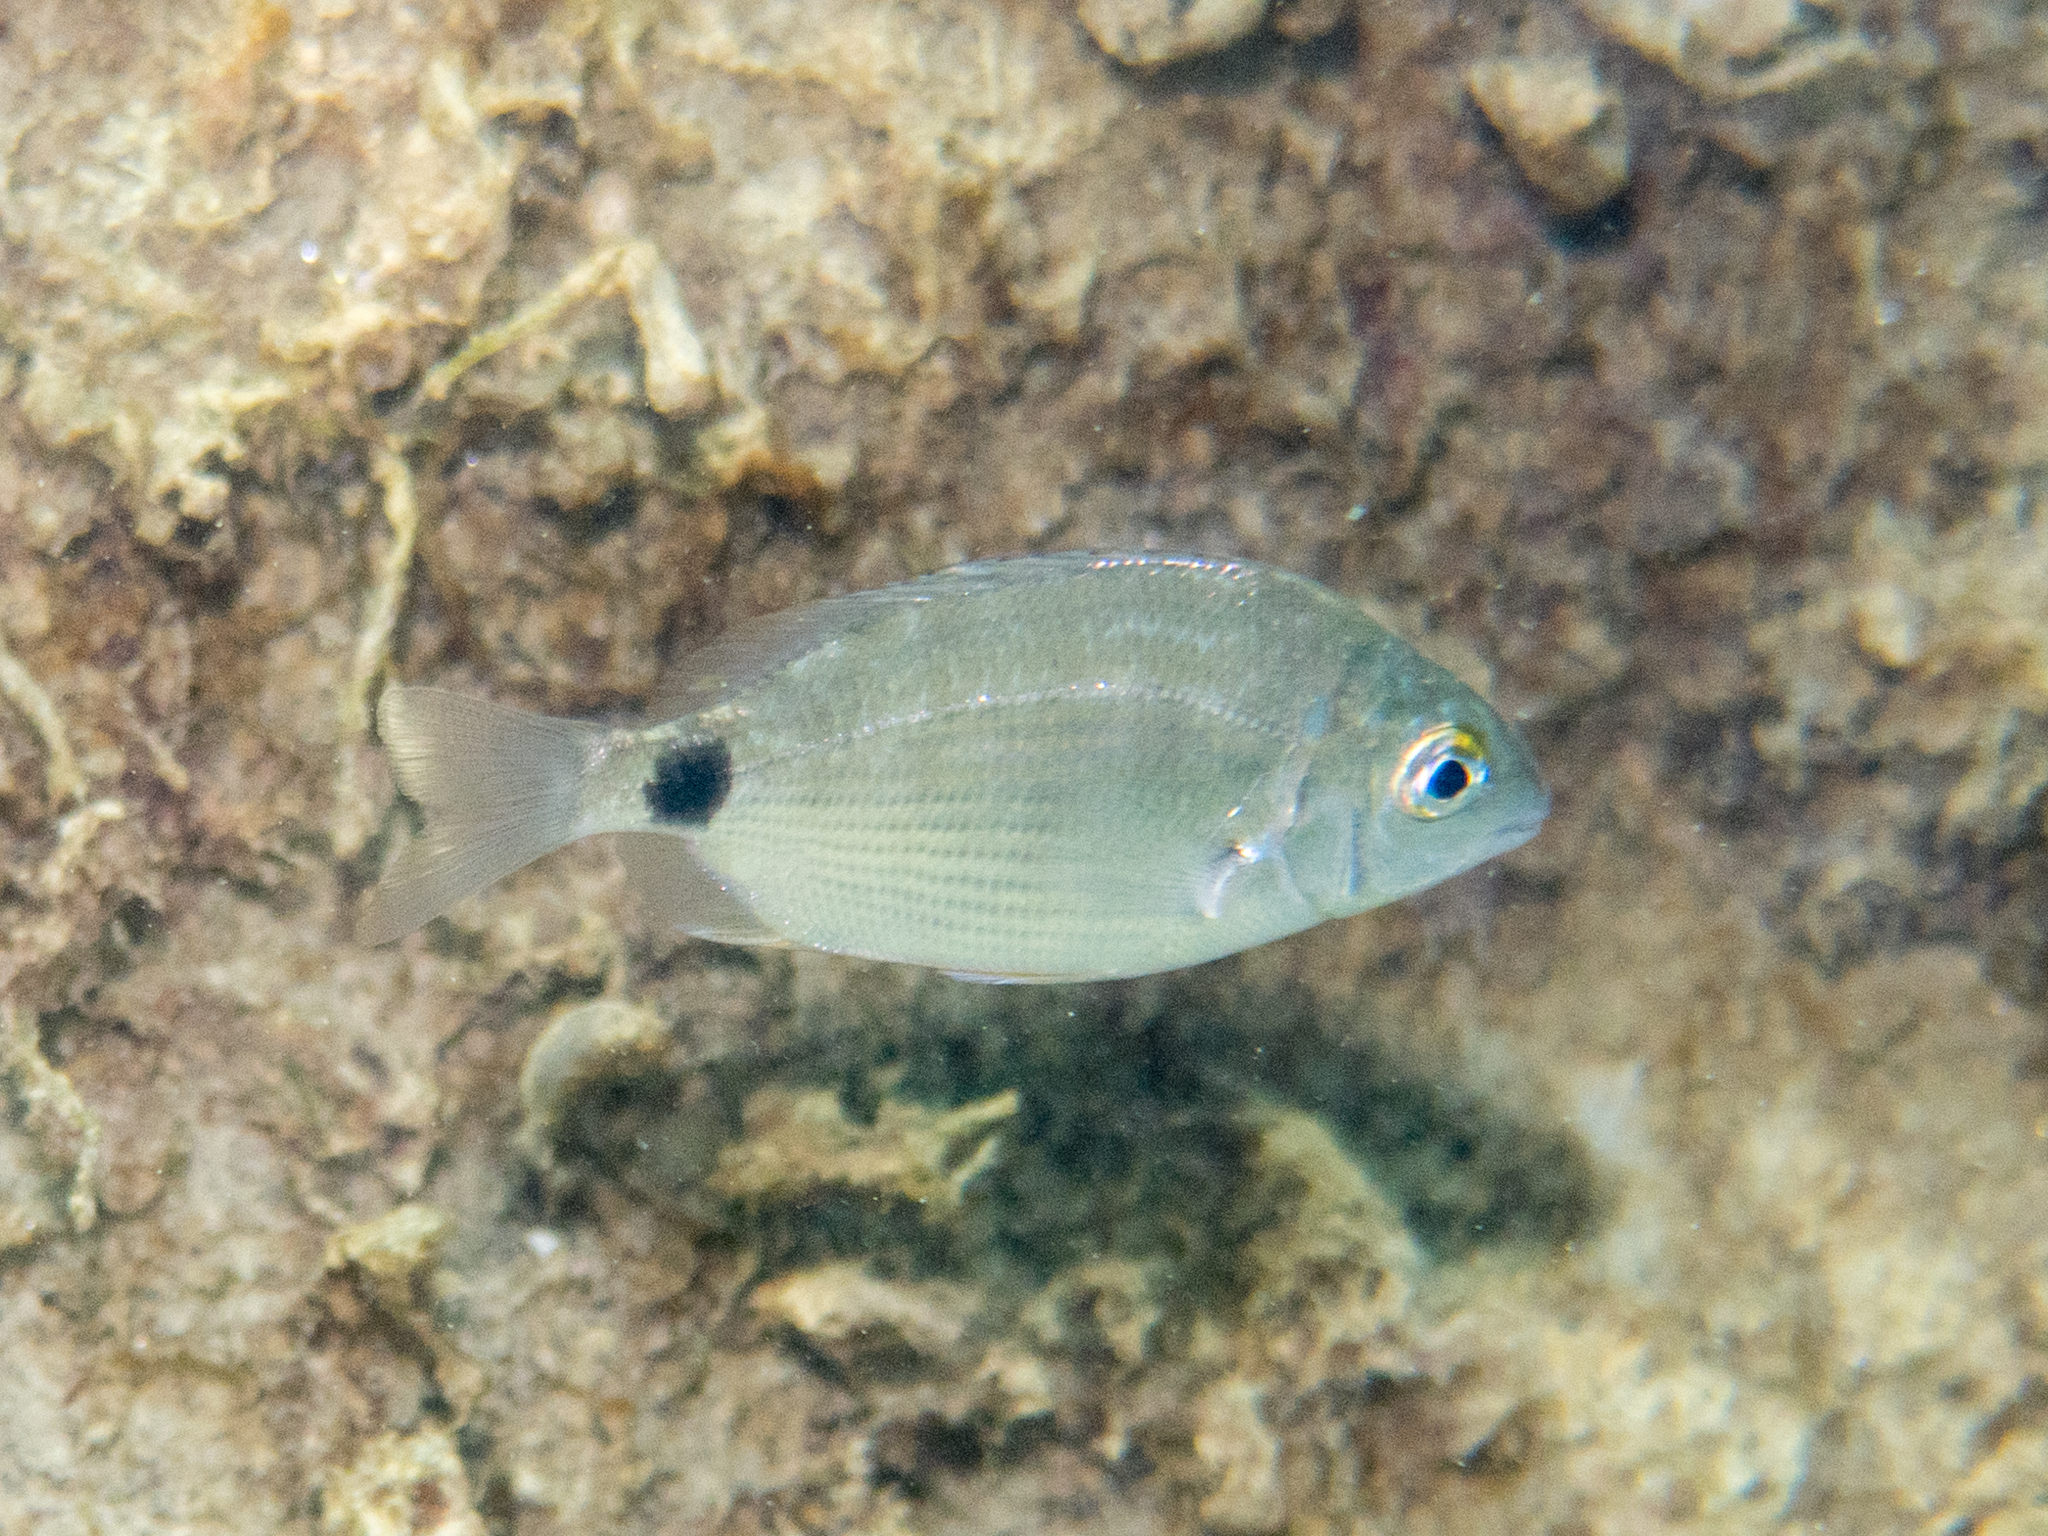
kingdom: Animalia
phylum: Chordata
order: Perciformes
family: Sparidae
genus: Diplodus
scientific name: Diplodus annularis
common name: Annular seabream
